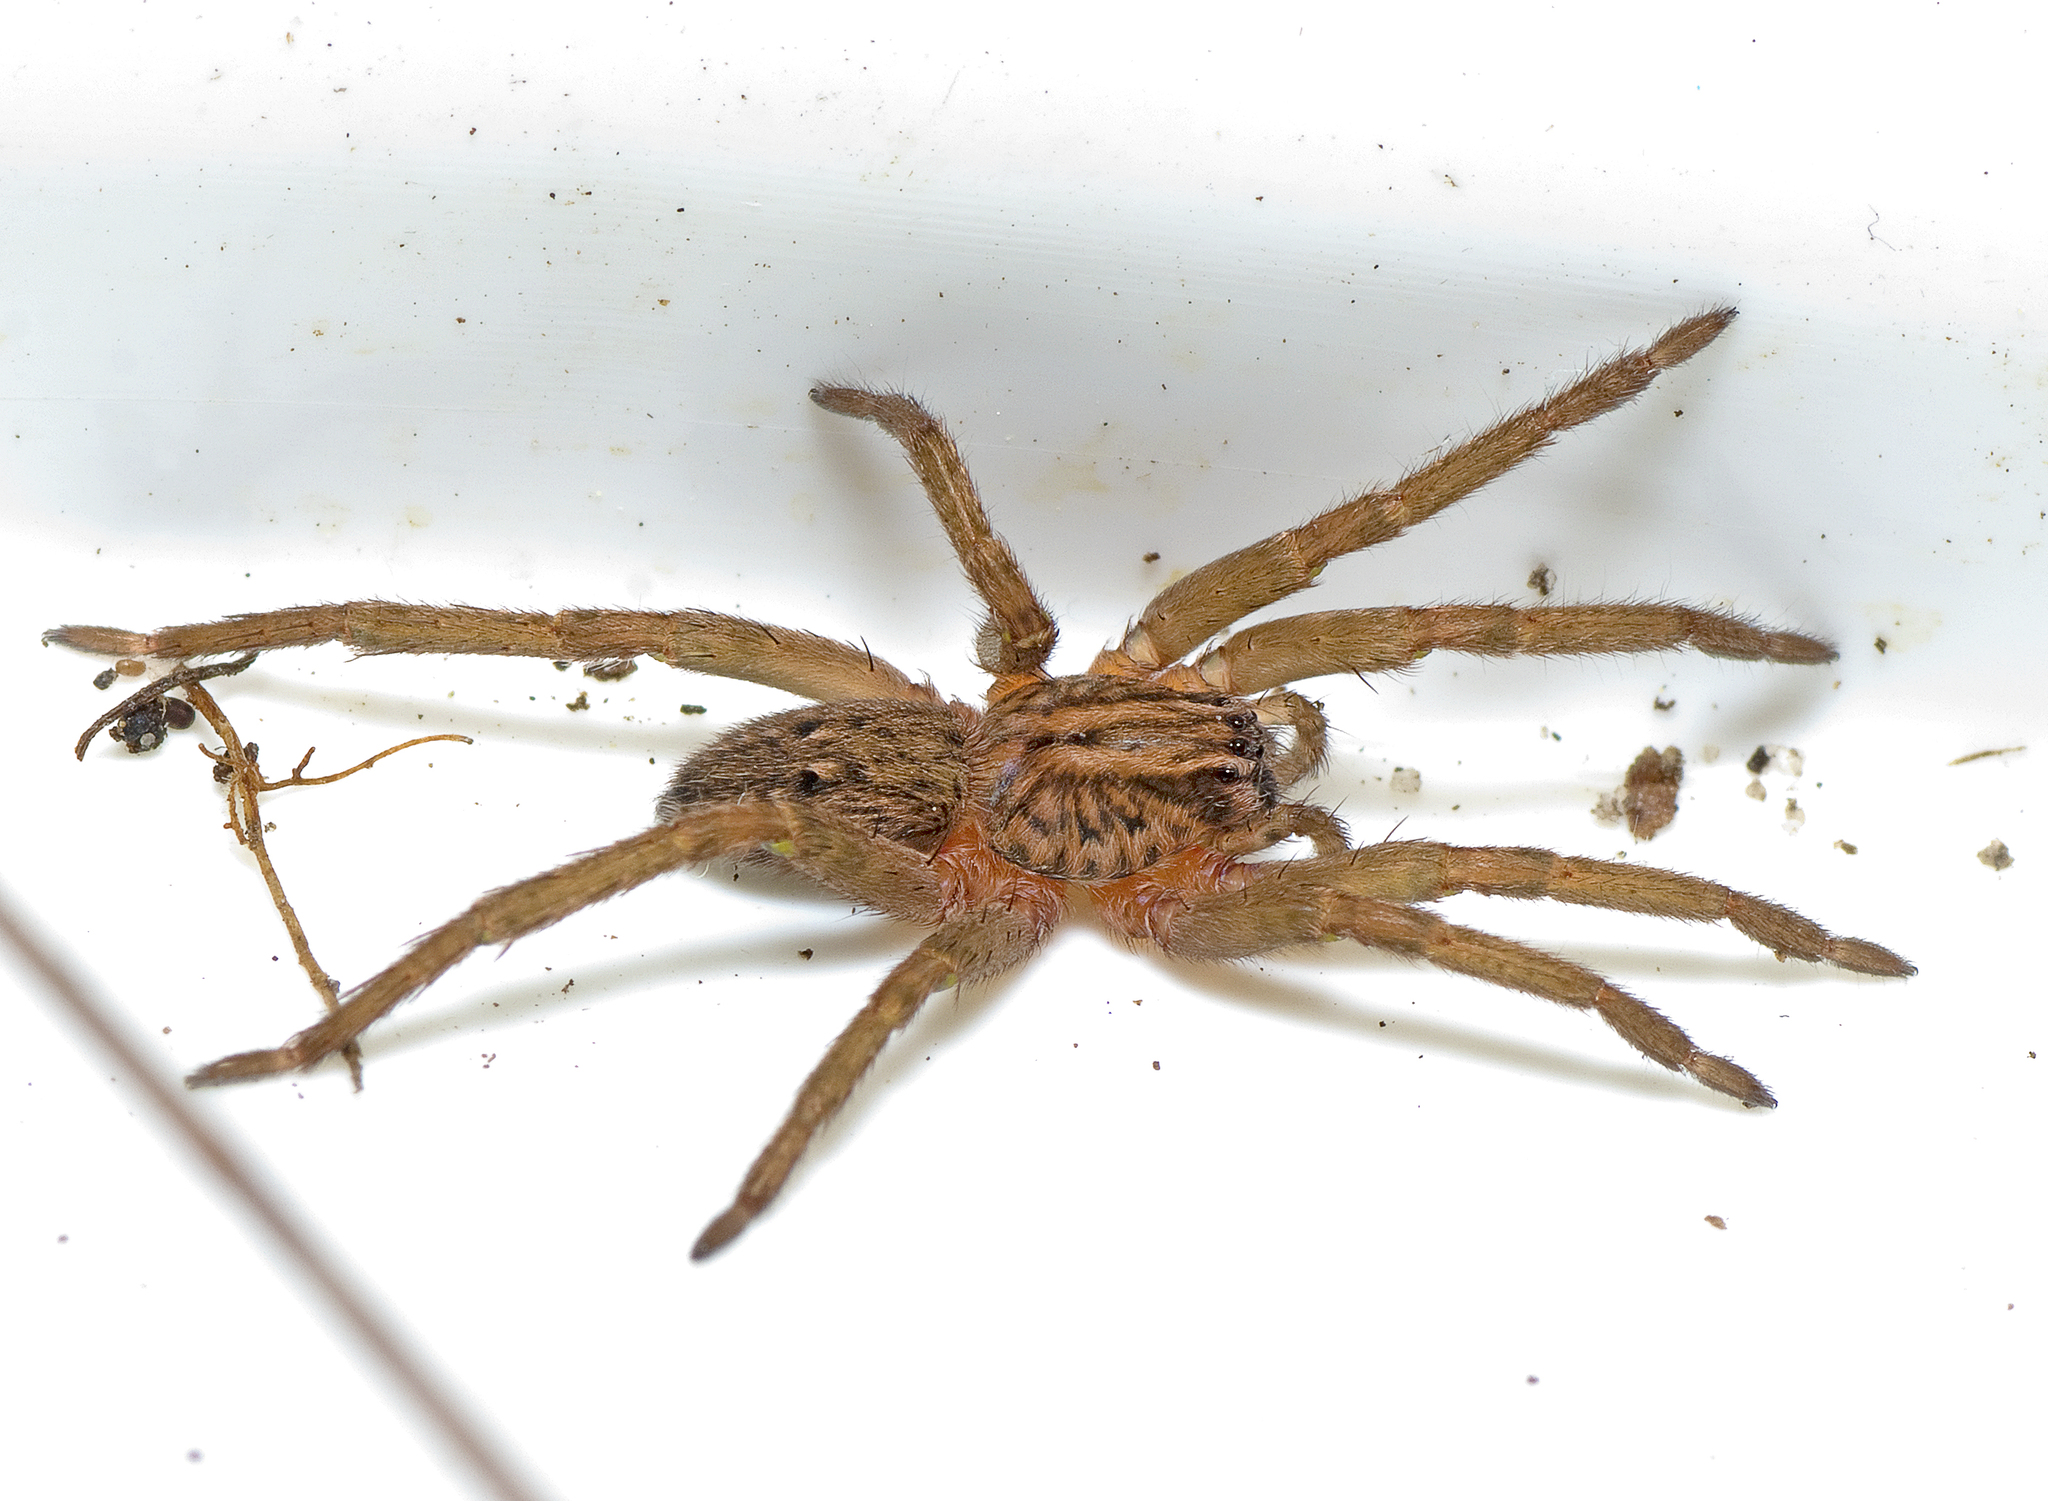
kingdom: Animalia
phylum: Arthropoda
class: Arachnida
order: Araneae
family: Miturgidae
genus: Mituliodon
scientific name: Mituliodon tarantulinus
